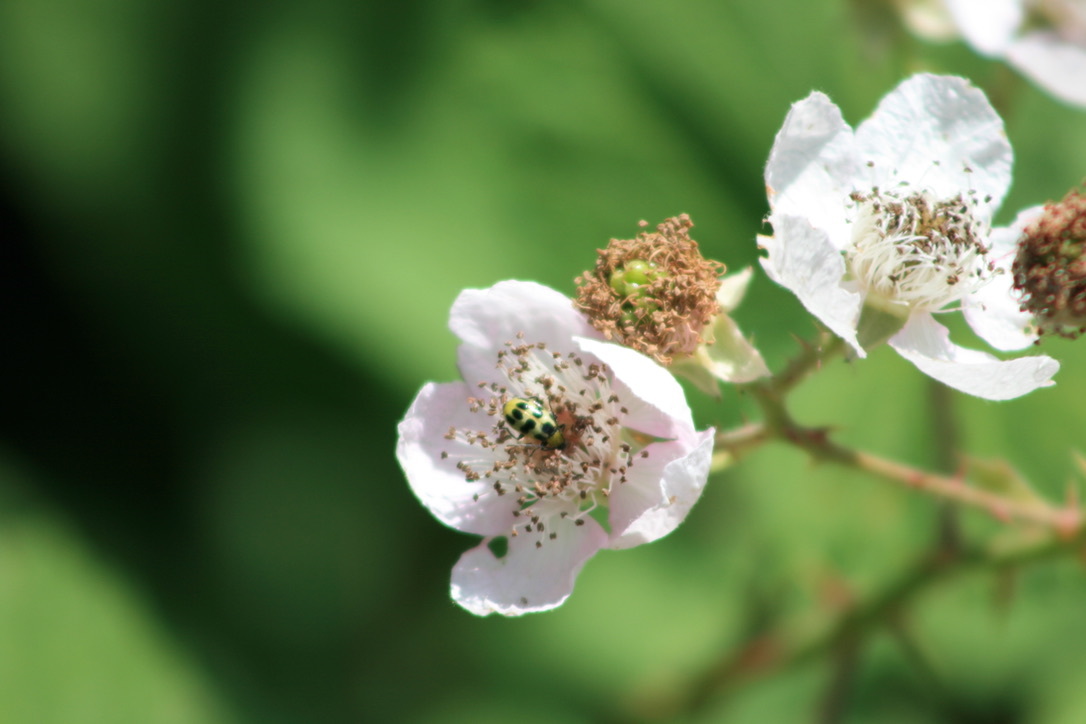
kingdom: Plantae
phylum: Tracheophyta
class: Magnoliopsida
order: Rosales
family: Rosaceae
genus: Rubus
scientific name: Rubus armeniacus
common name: Himalayan blackberry
